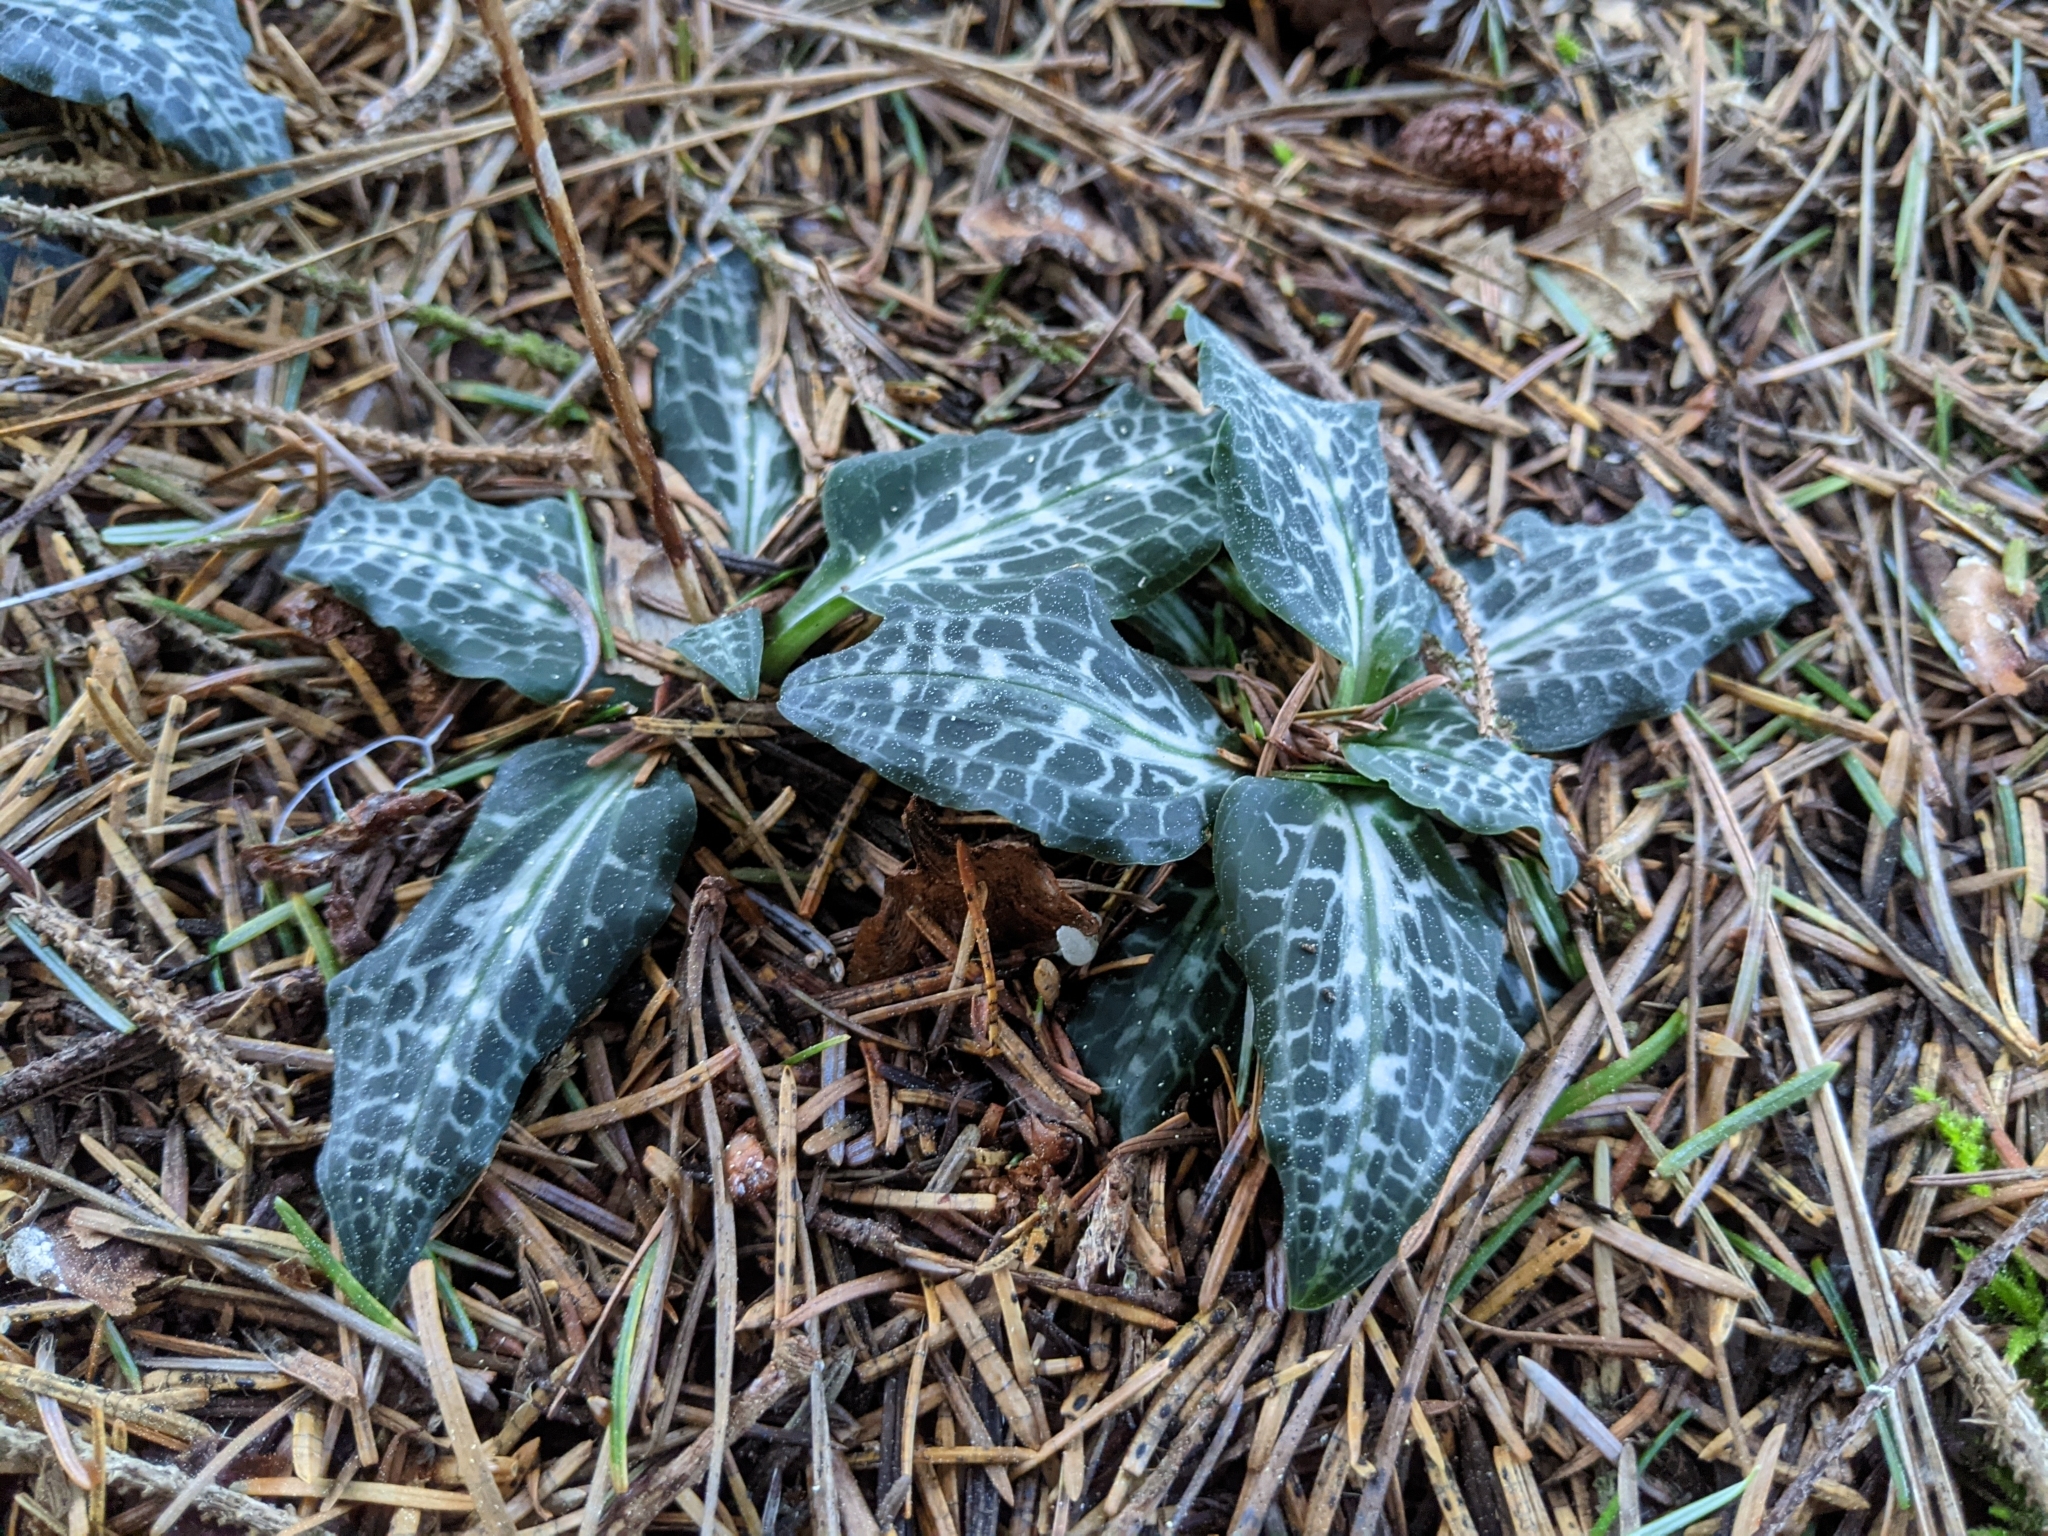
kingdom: Plantae
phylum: Tracheophyta
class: Liliopsida
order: Asparagales
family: Orchidaceae
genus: Goodyera
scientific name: Goodyera oblongifolia
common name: Giant rattlesnake-plantain
